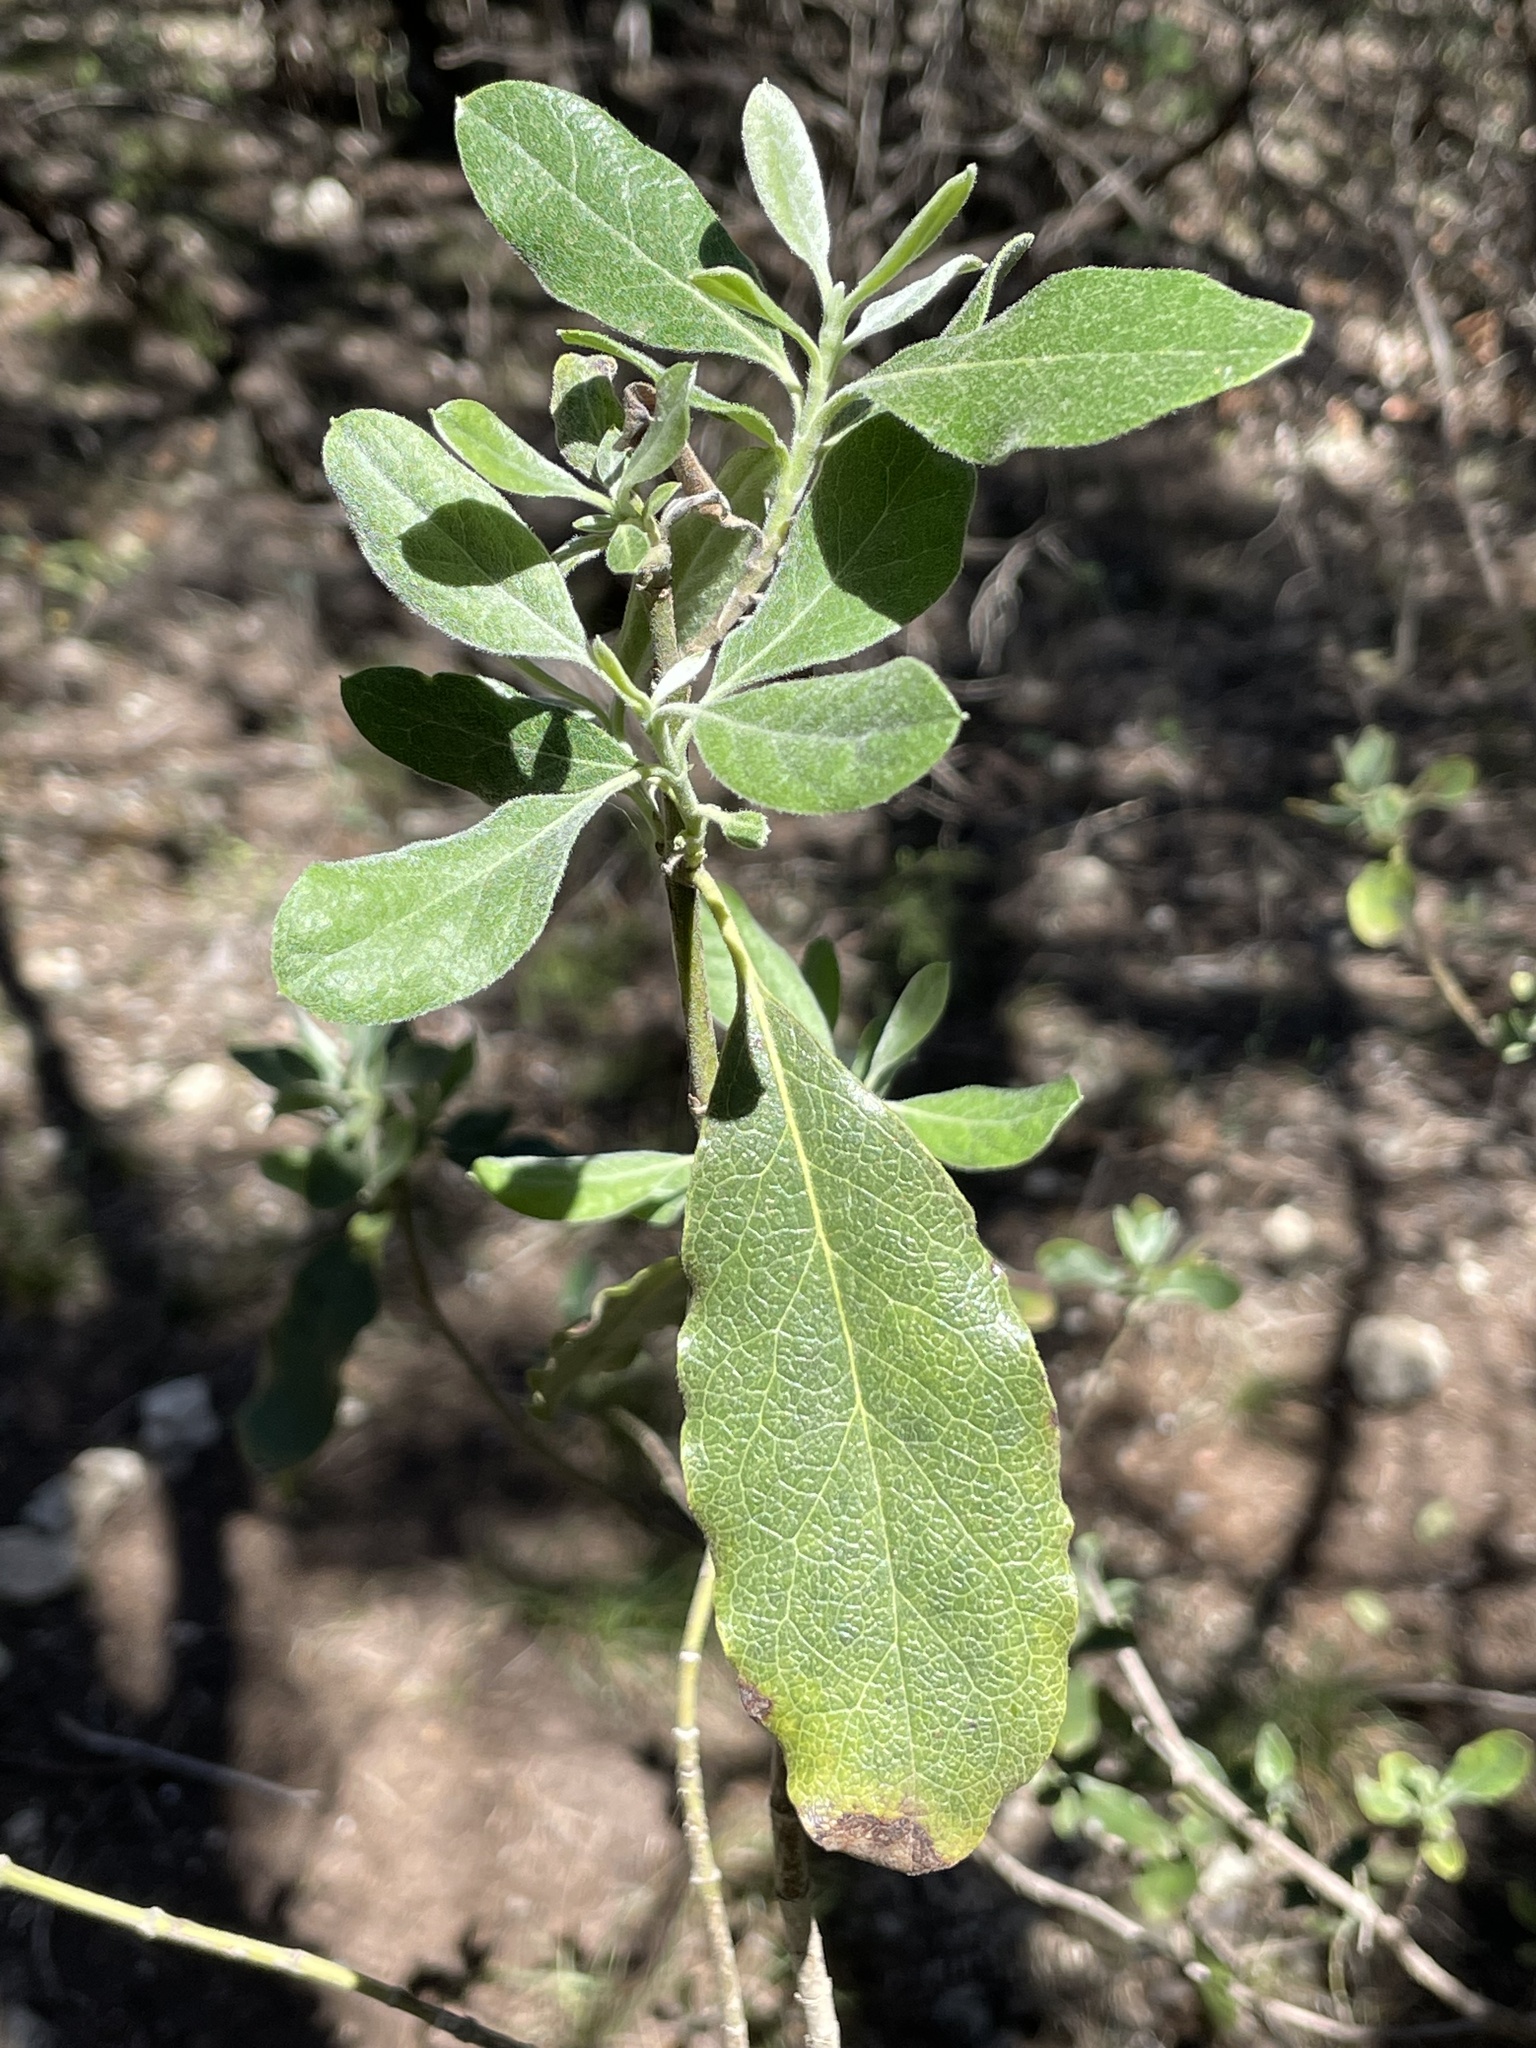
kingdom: Plantae
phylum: Tracheophyta
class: Magnoliopsida
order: Garryales
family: Garryaceae
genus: Garrya
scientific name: Garrya lindheimeri
